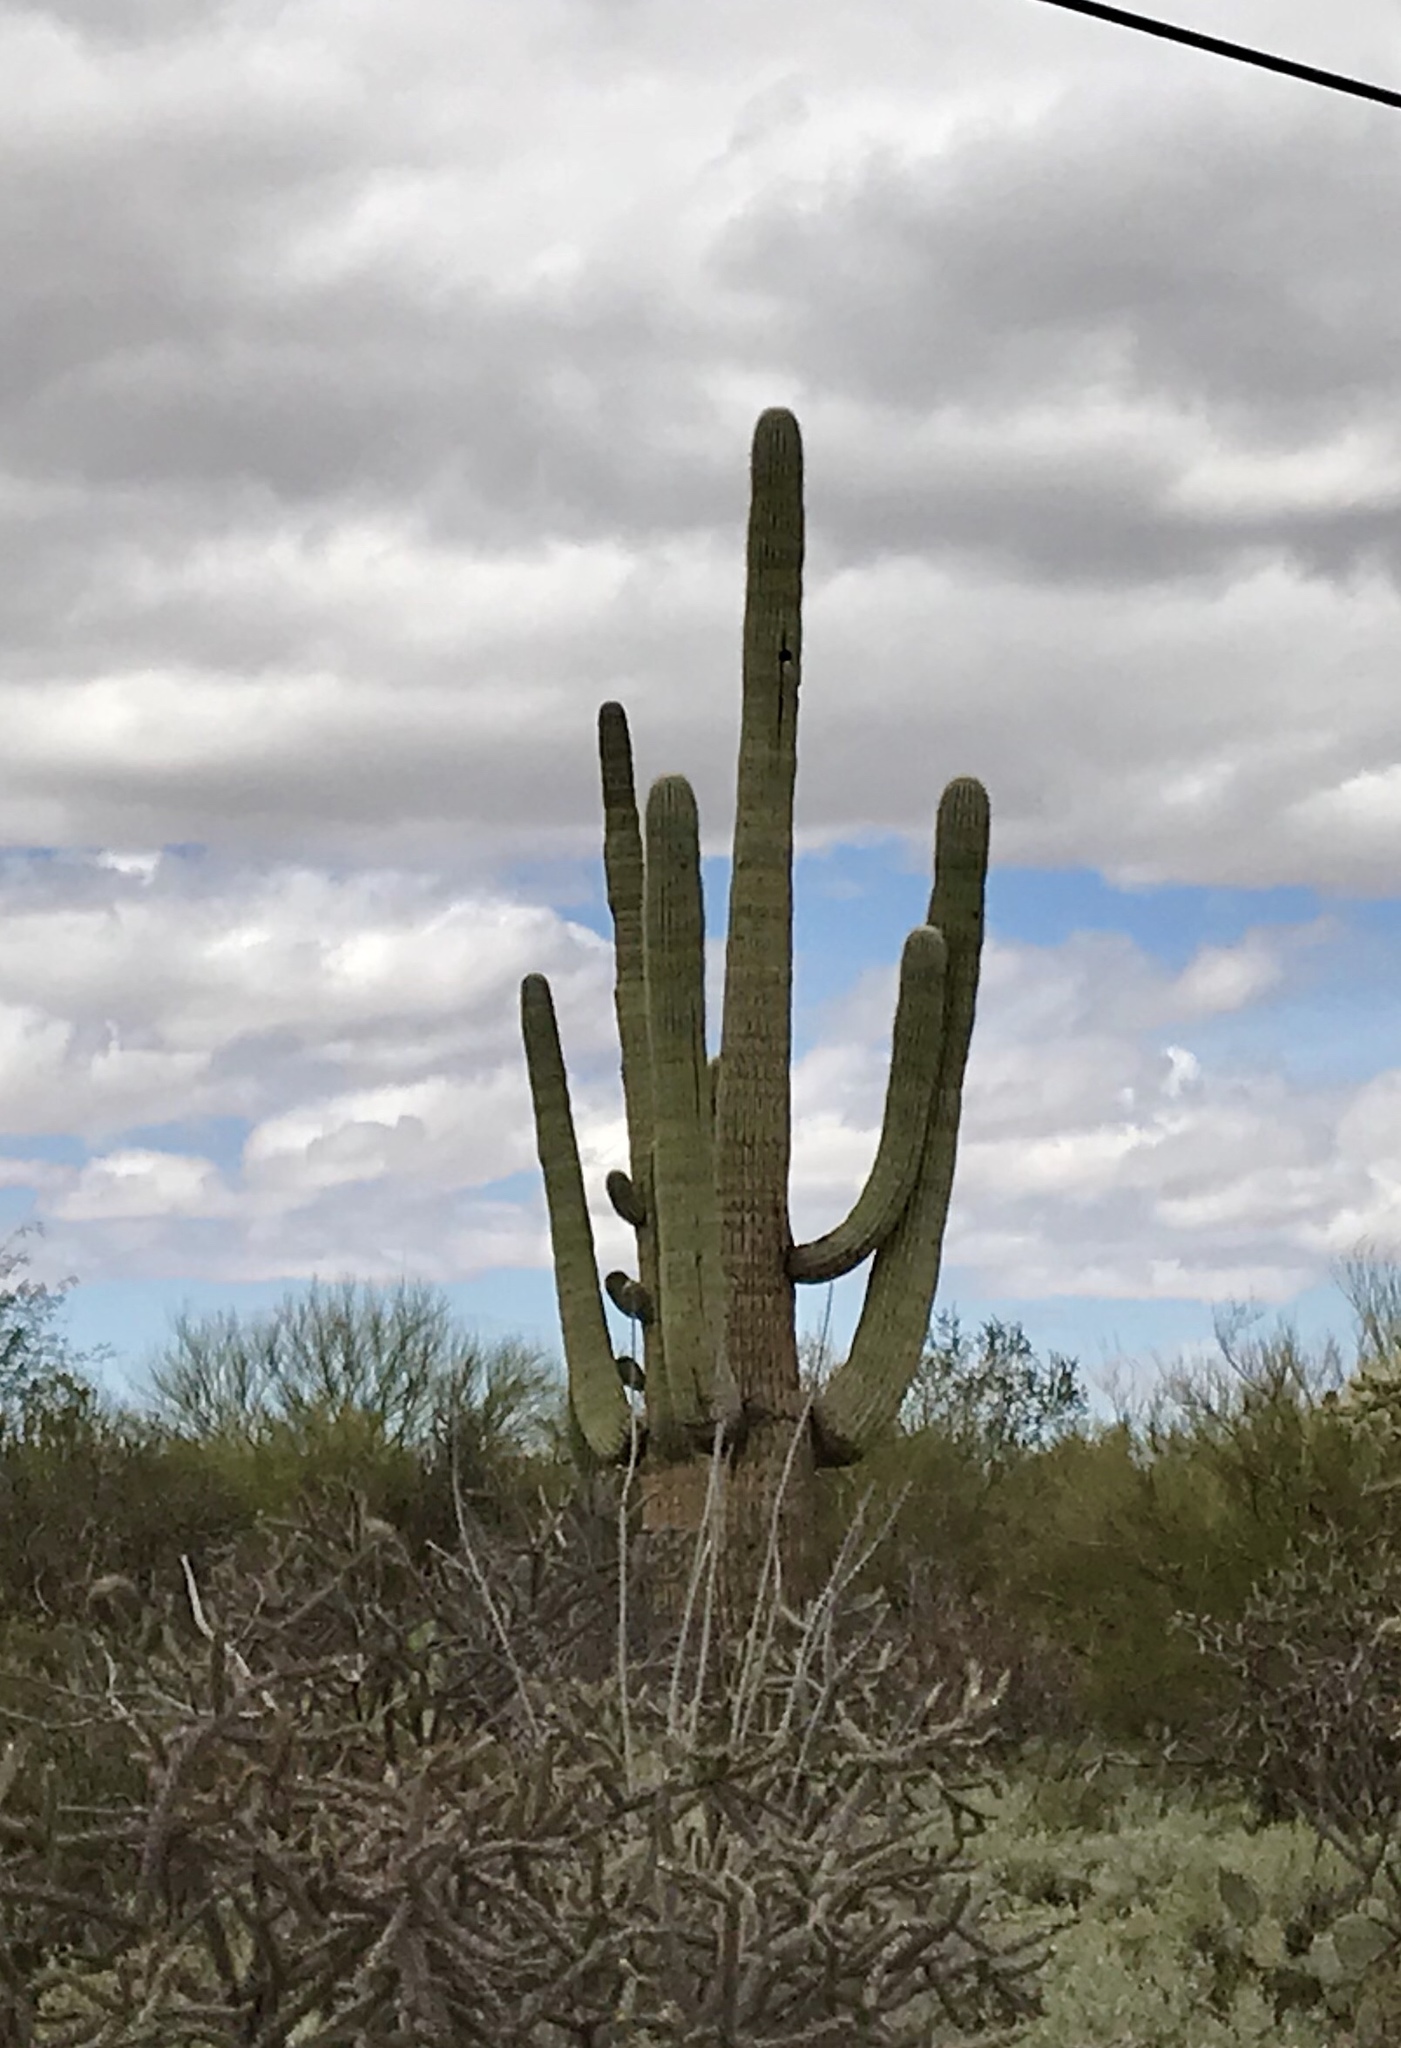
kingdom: Plantae
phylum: Tracheophyta
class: Magnoliopsida
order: Caryophyllales
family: Cactaceae
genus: Carnegiea
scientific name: Carnegiea gigantea
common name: Saguaro
